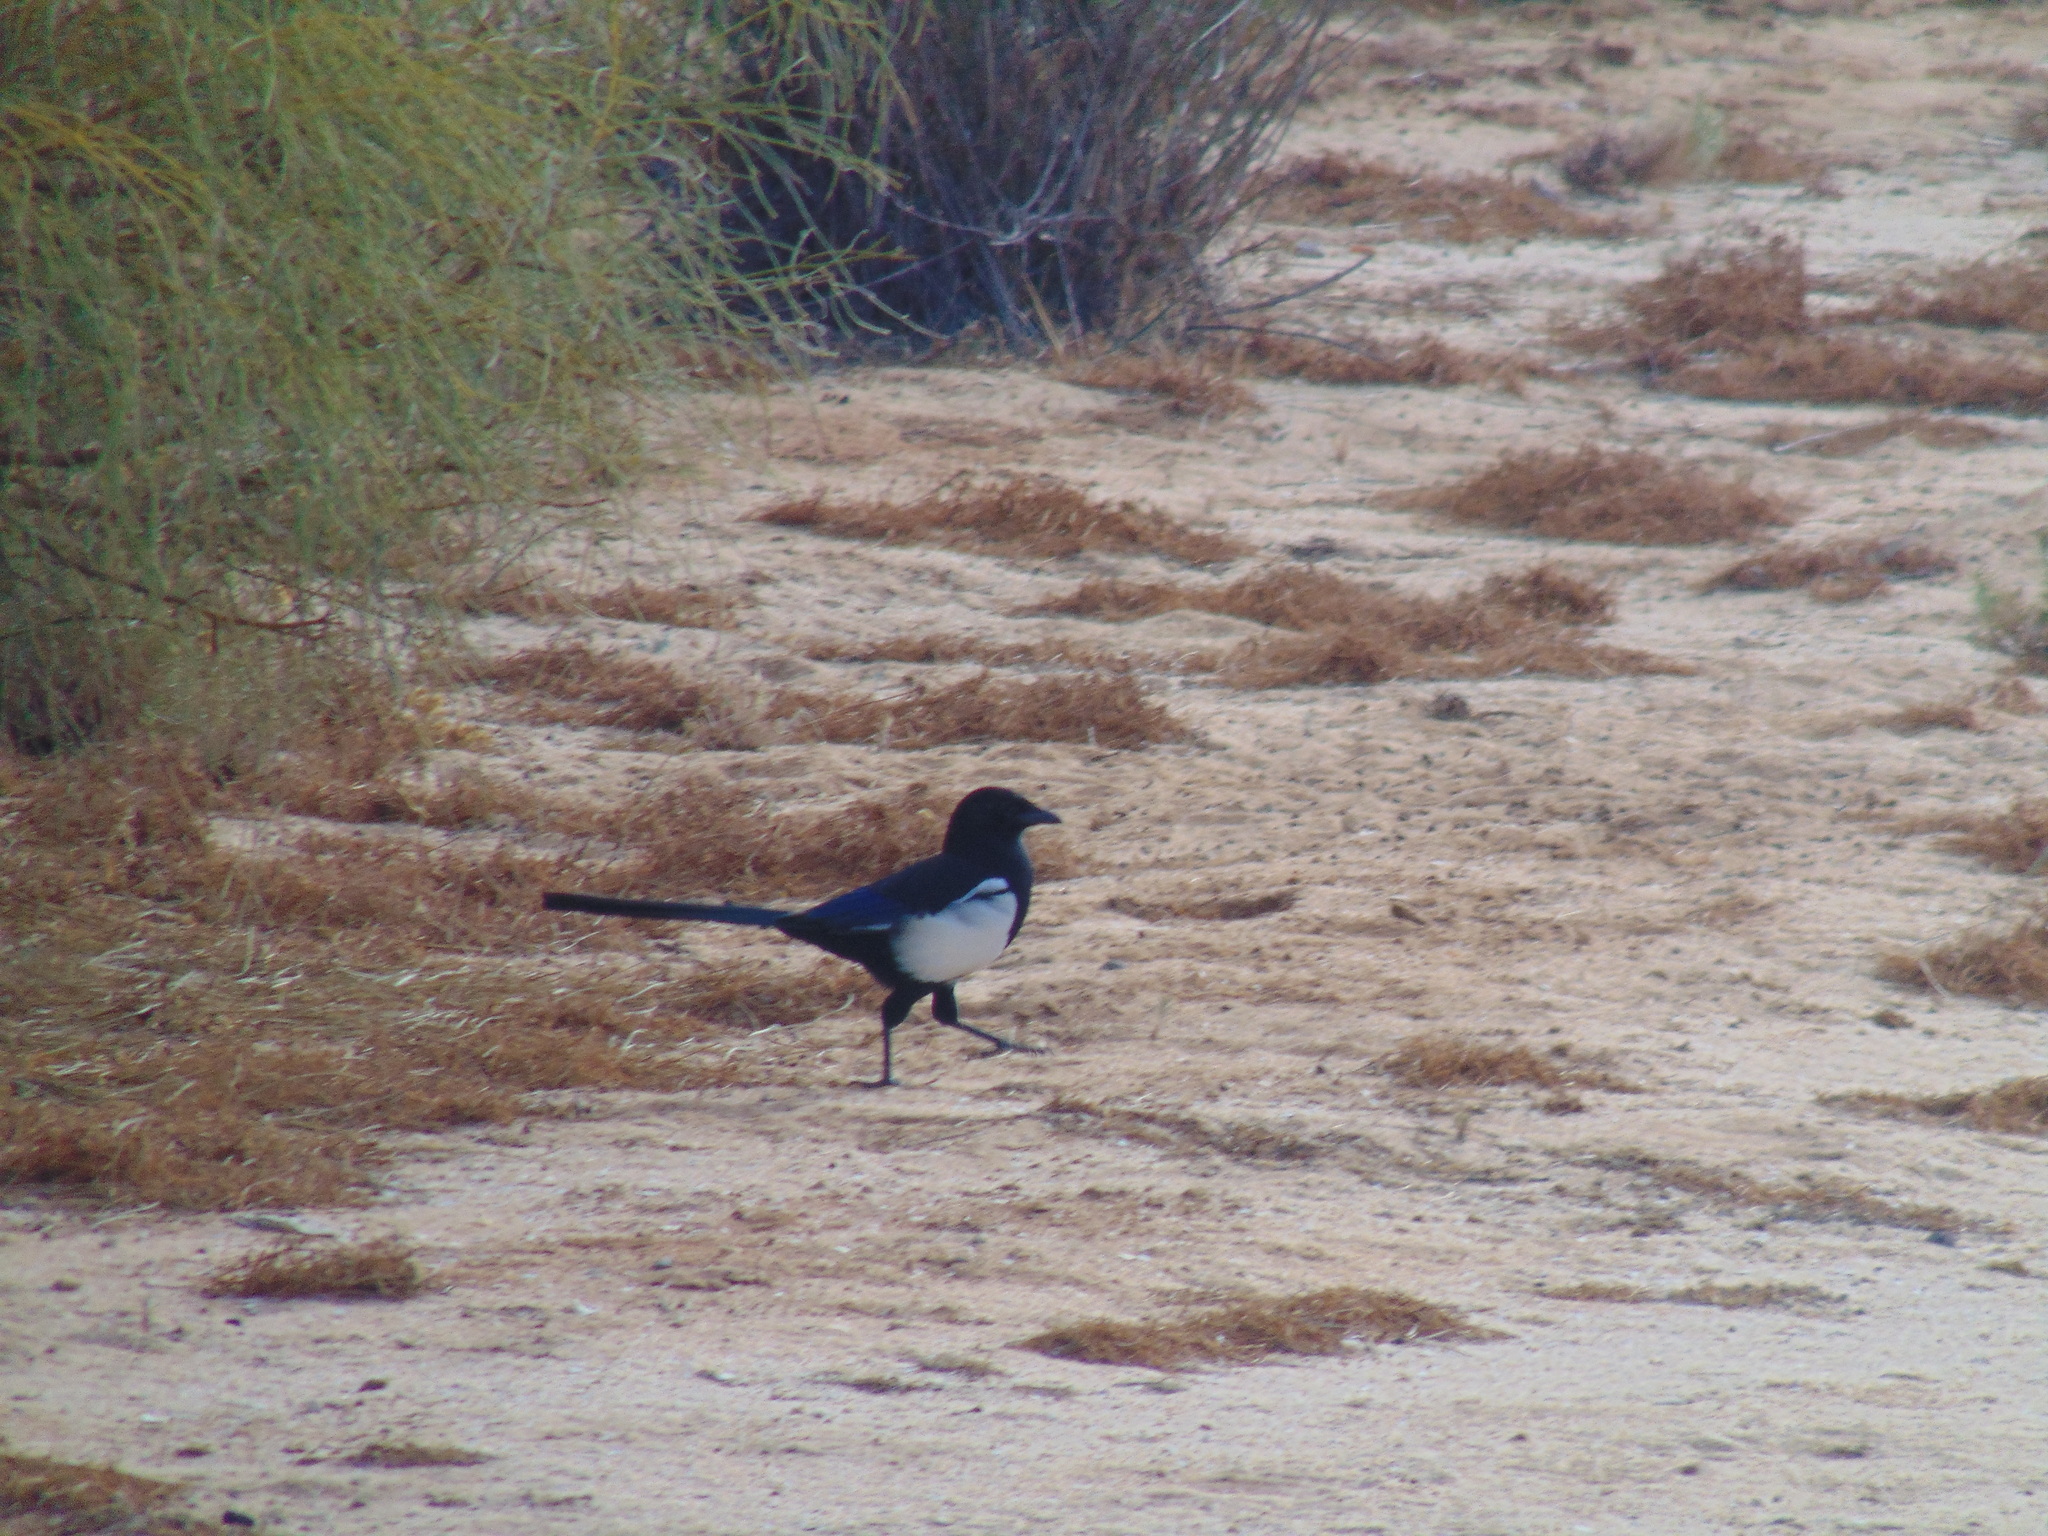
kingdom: Animalia
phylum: Chordata
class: Aves
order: Passeriformes
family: Corvidae
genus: Pica
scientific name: Pica pica
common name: Eurasian magpie
